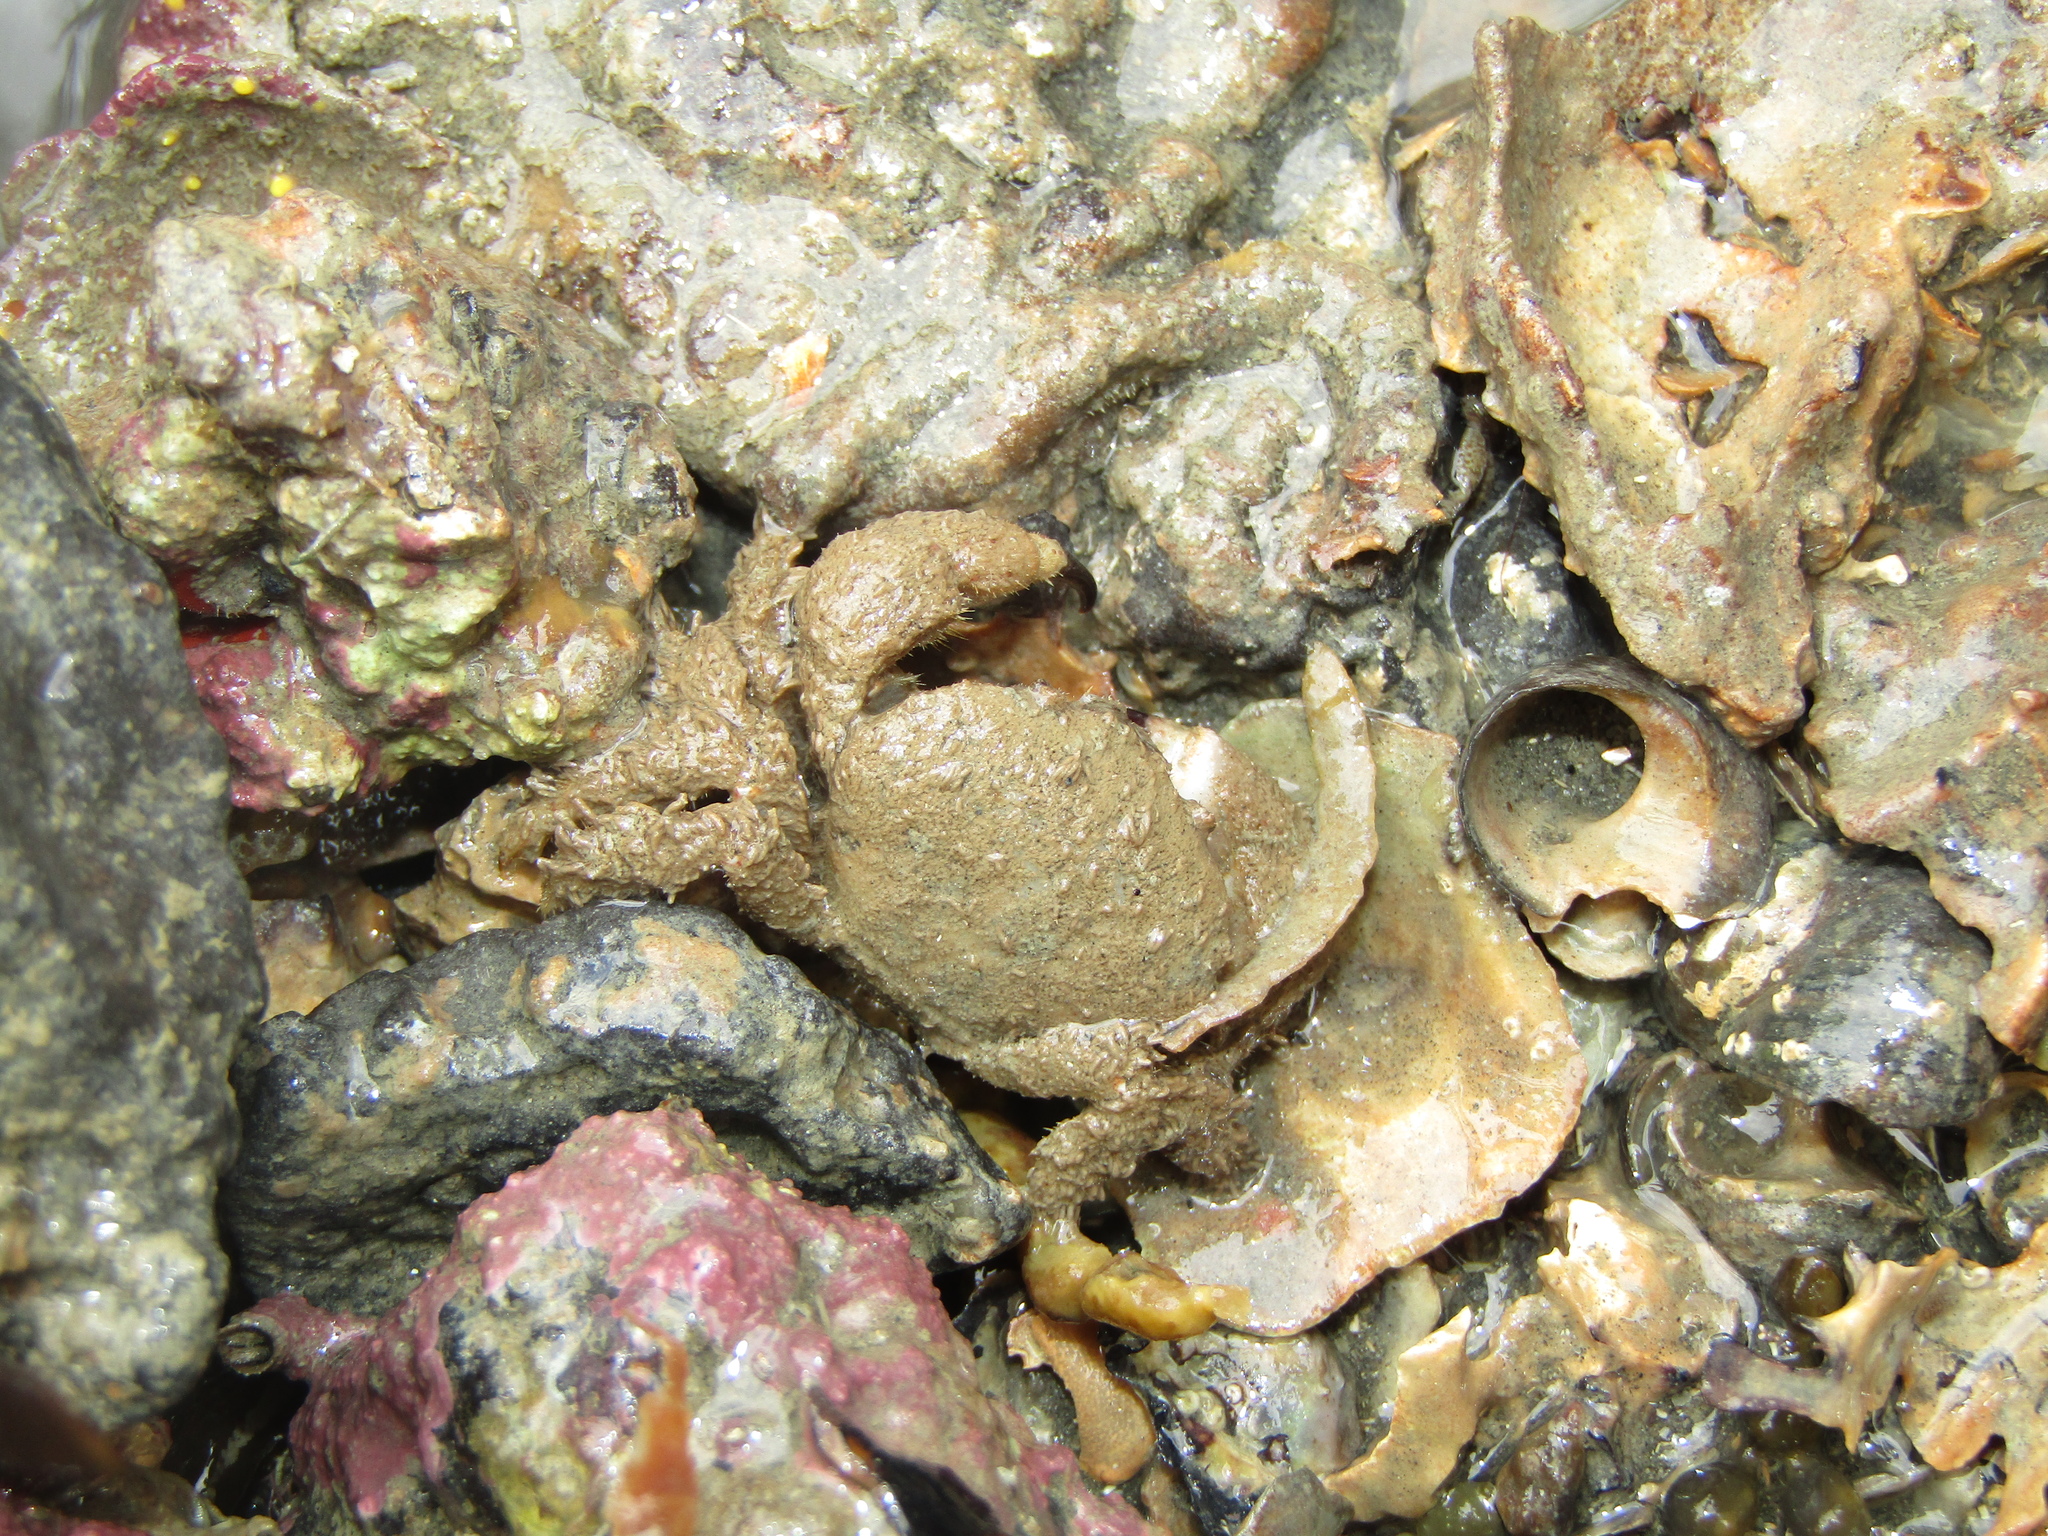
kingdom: Animalia
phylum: Arthropoda
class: Malacostraca
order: Decapoda
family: Pilumnidae
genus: Pilumnus
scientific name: Pilumnus lumpinus
